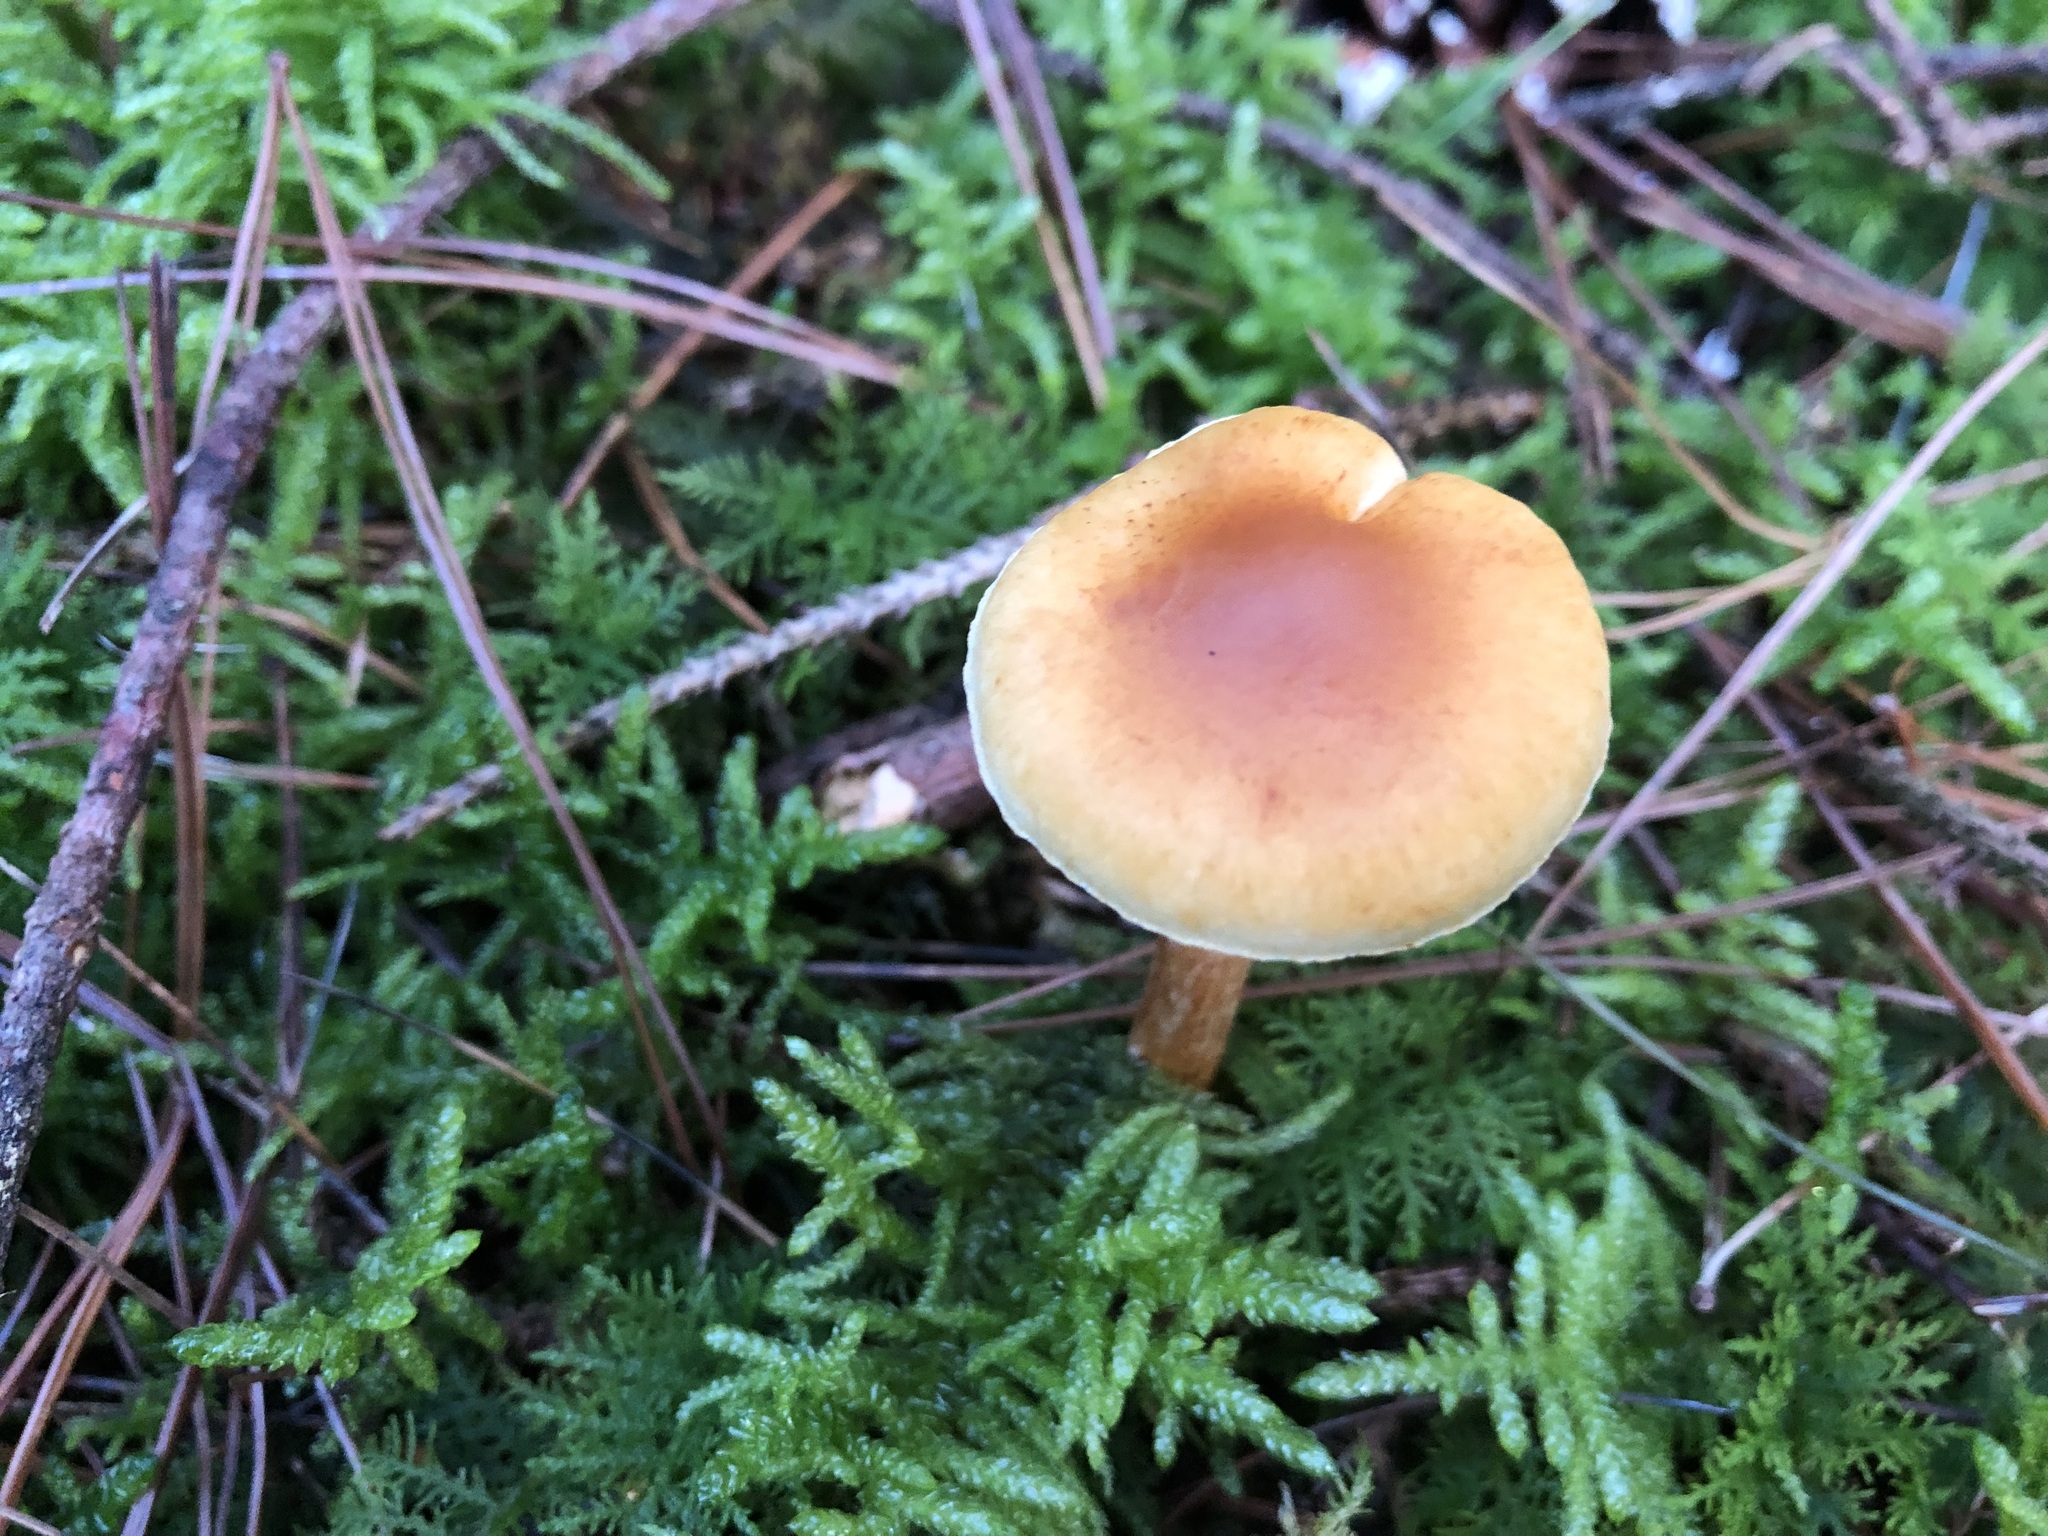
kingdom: Fungi
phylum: Basidiomycota
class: Agaricomycetes
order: Agaricales
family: Hymenogastraceae
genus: Gymnopilus
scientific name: Gymnopilus penetrans
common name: Common rustgill
